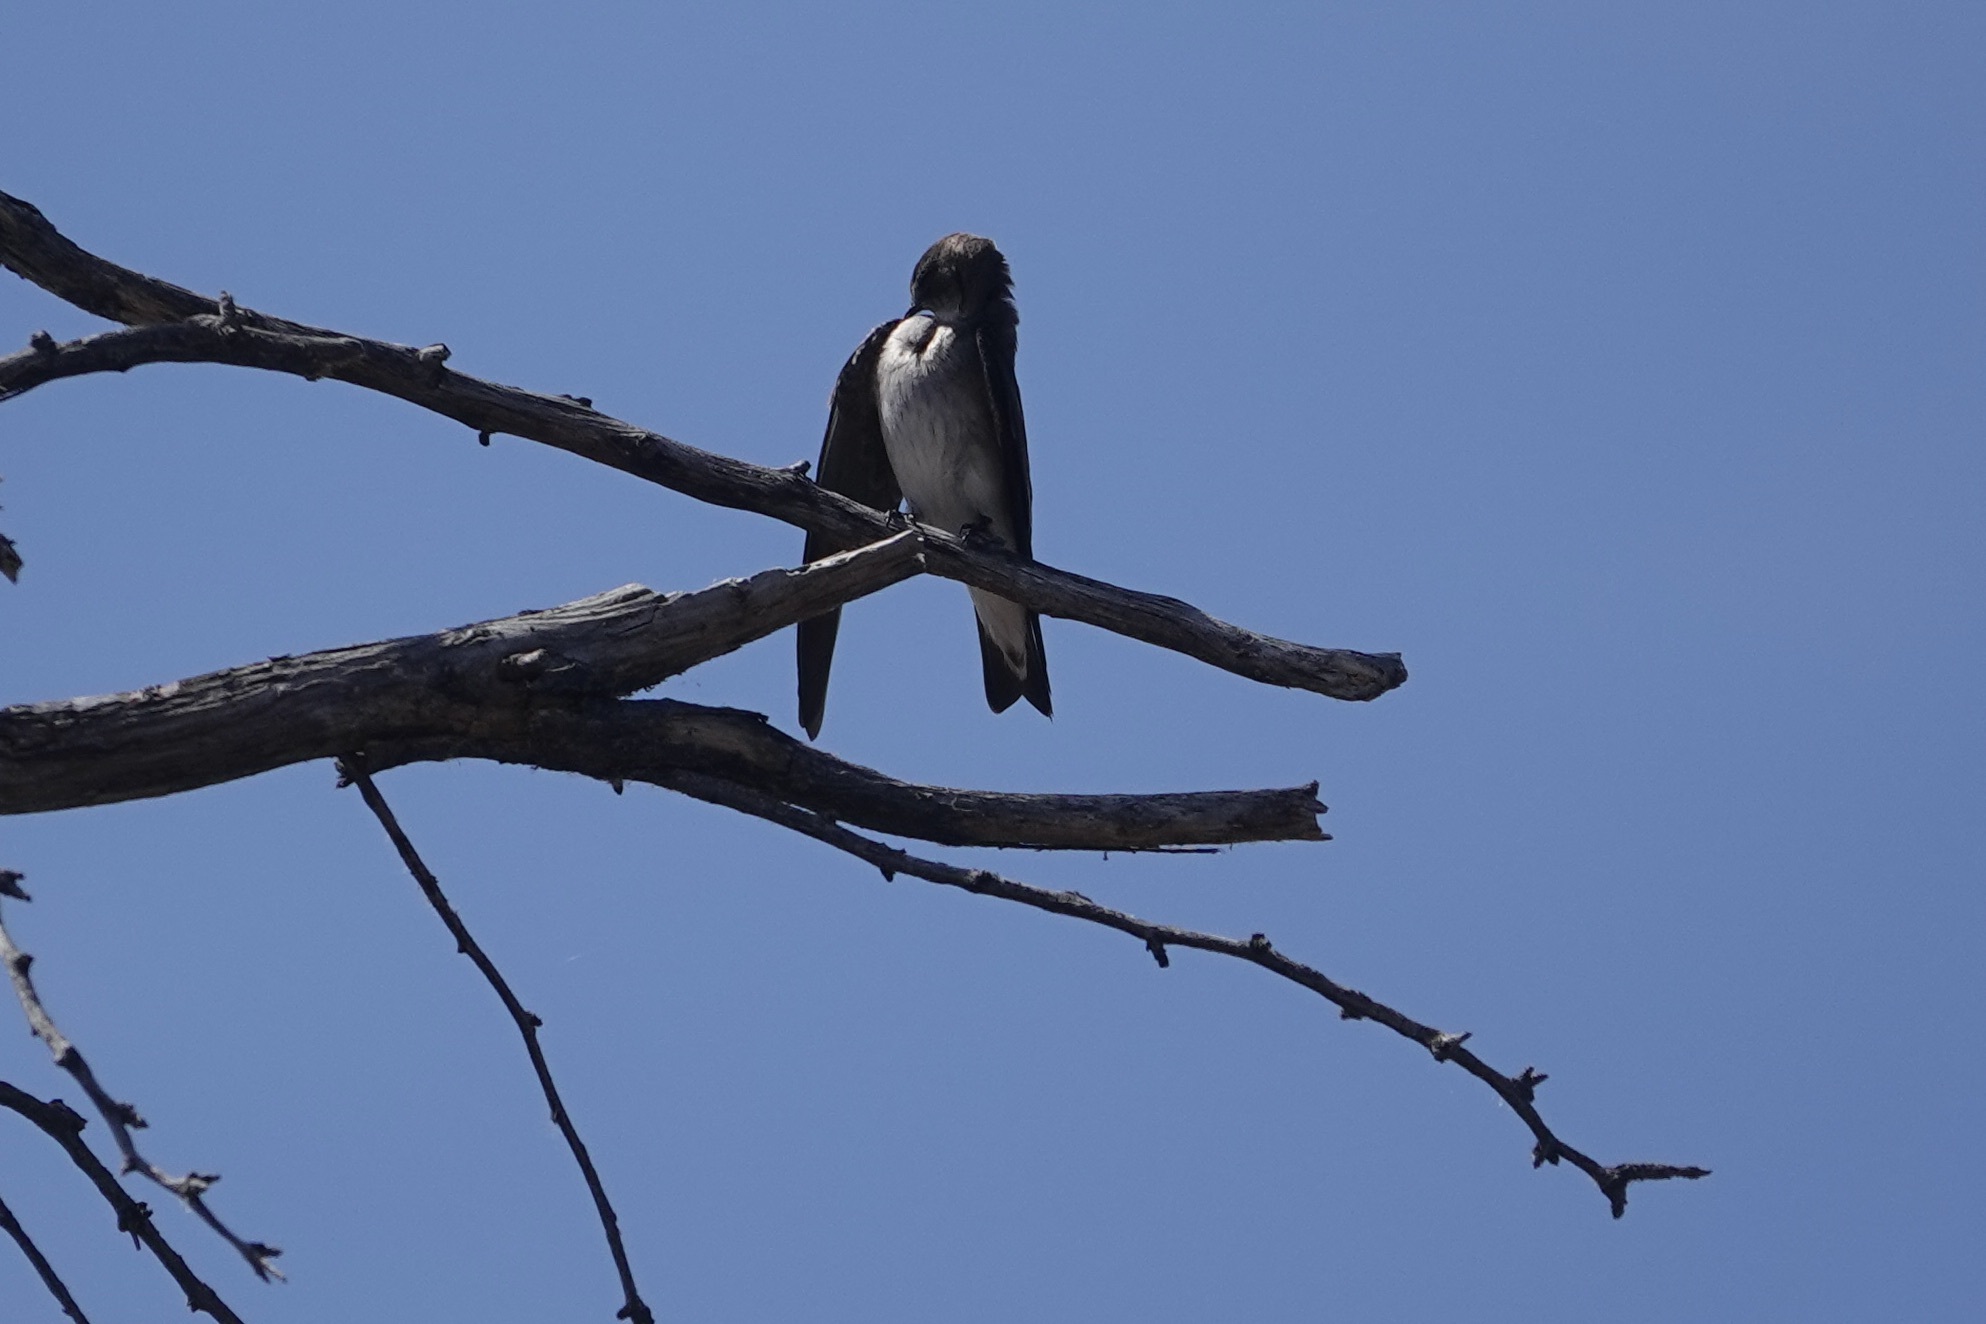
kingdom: Animalia
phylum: Chordata
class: Aves
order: Passeriformes
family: Hirundinidae
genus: Stelgidopteryx
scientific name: Stelgidopteryx serripennis
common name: Northern rough-winged swallow
